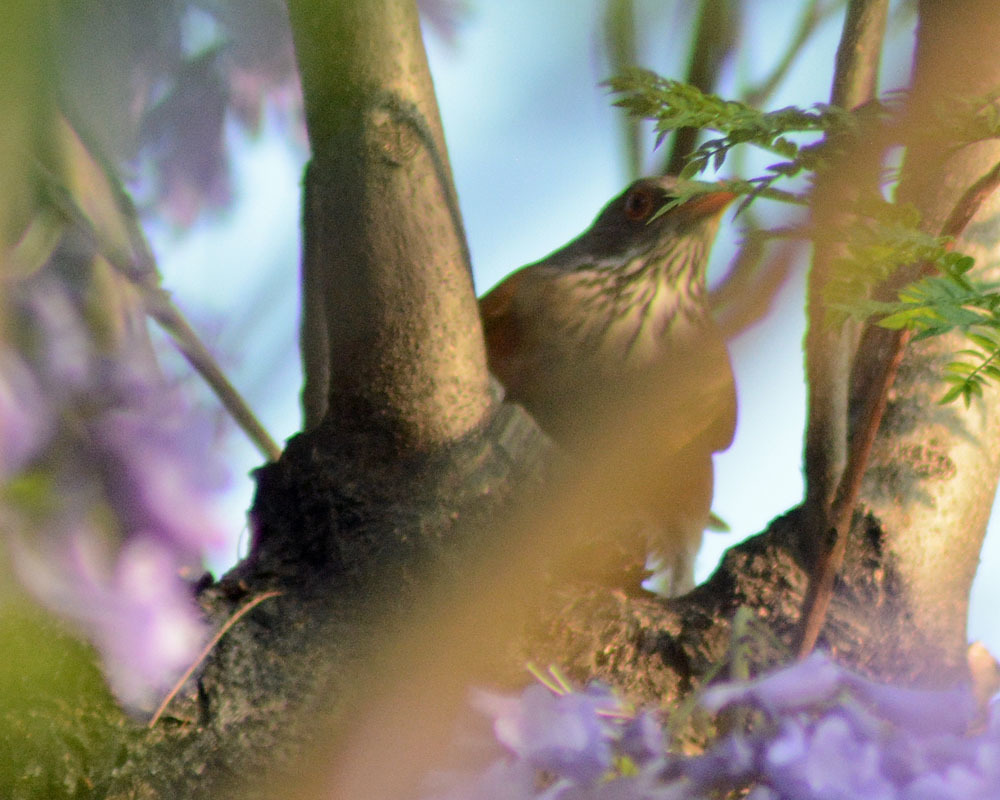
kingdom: Animalia
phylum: Chordata
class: Aves
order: Passeriformes
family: Turdidae
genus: Turdus
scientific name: Turdus rufopalliatus
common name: Rufous-backed robin
